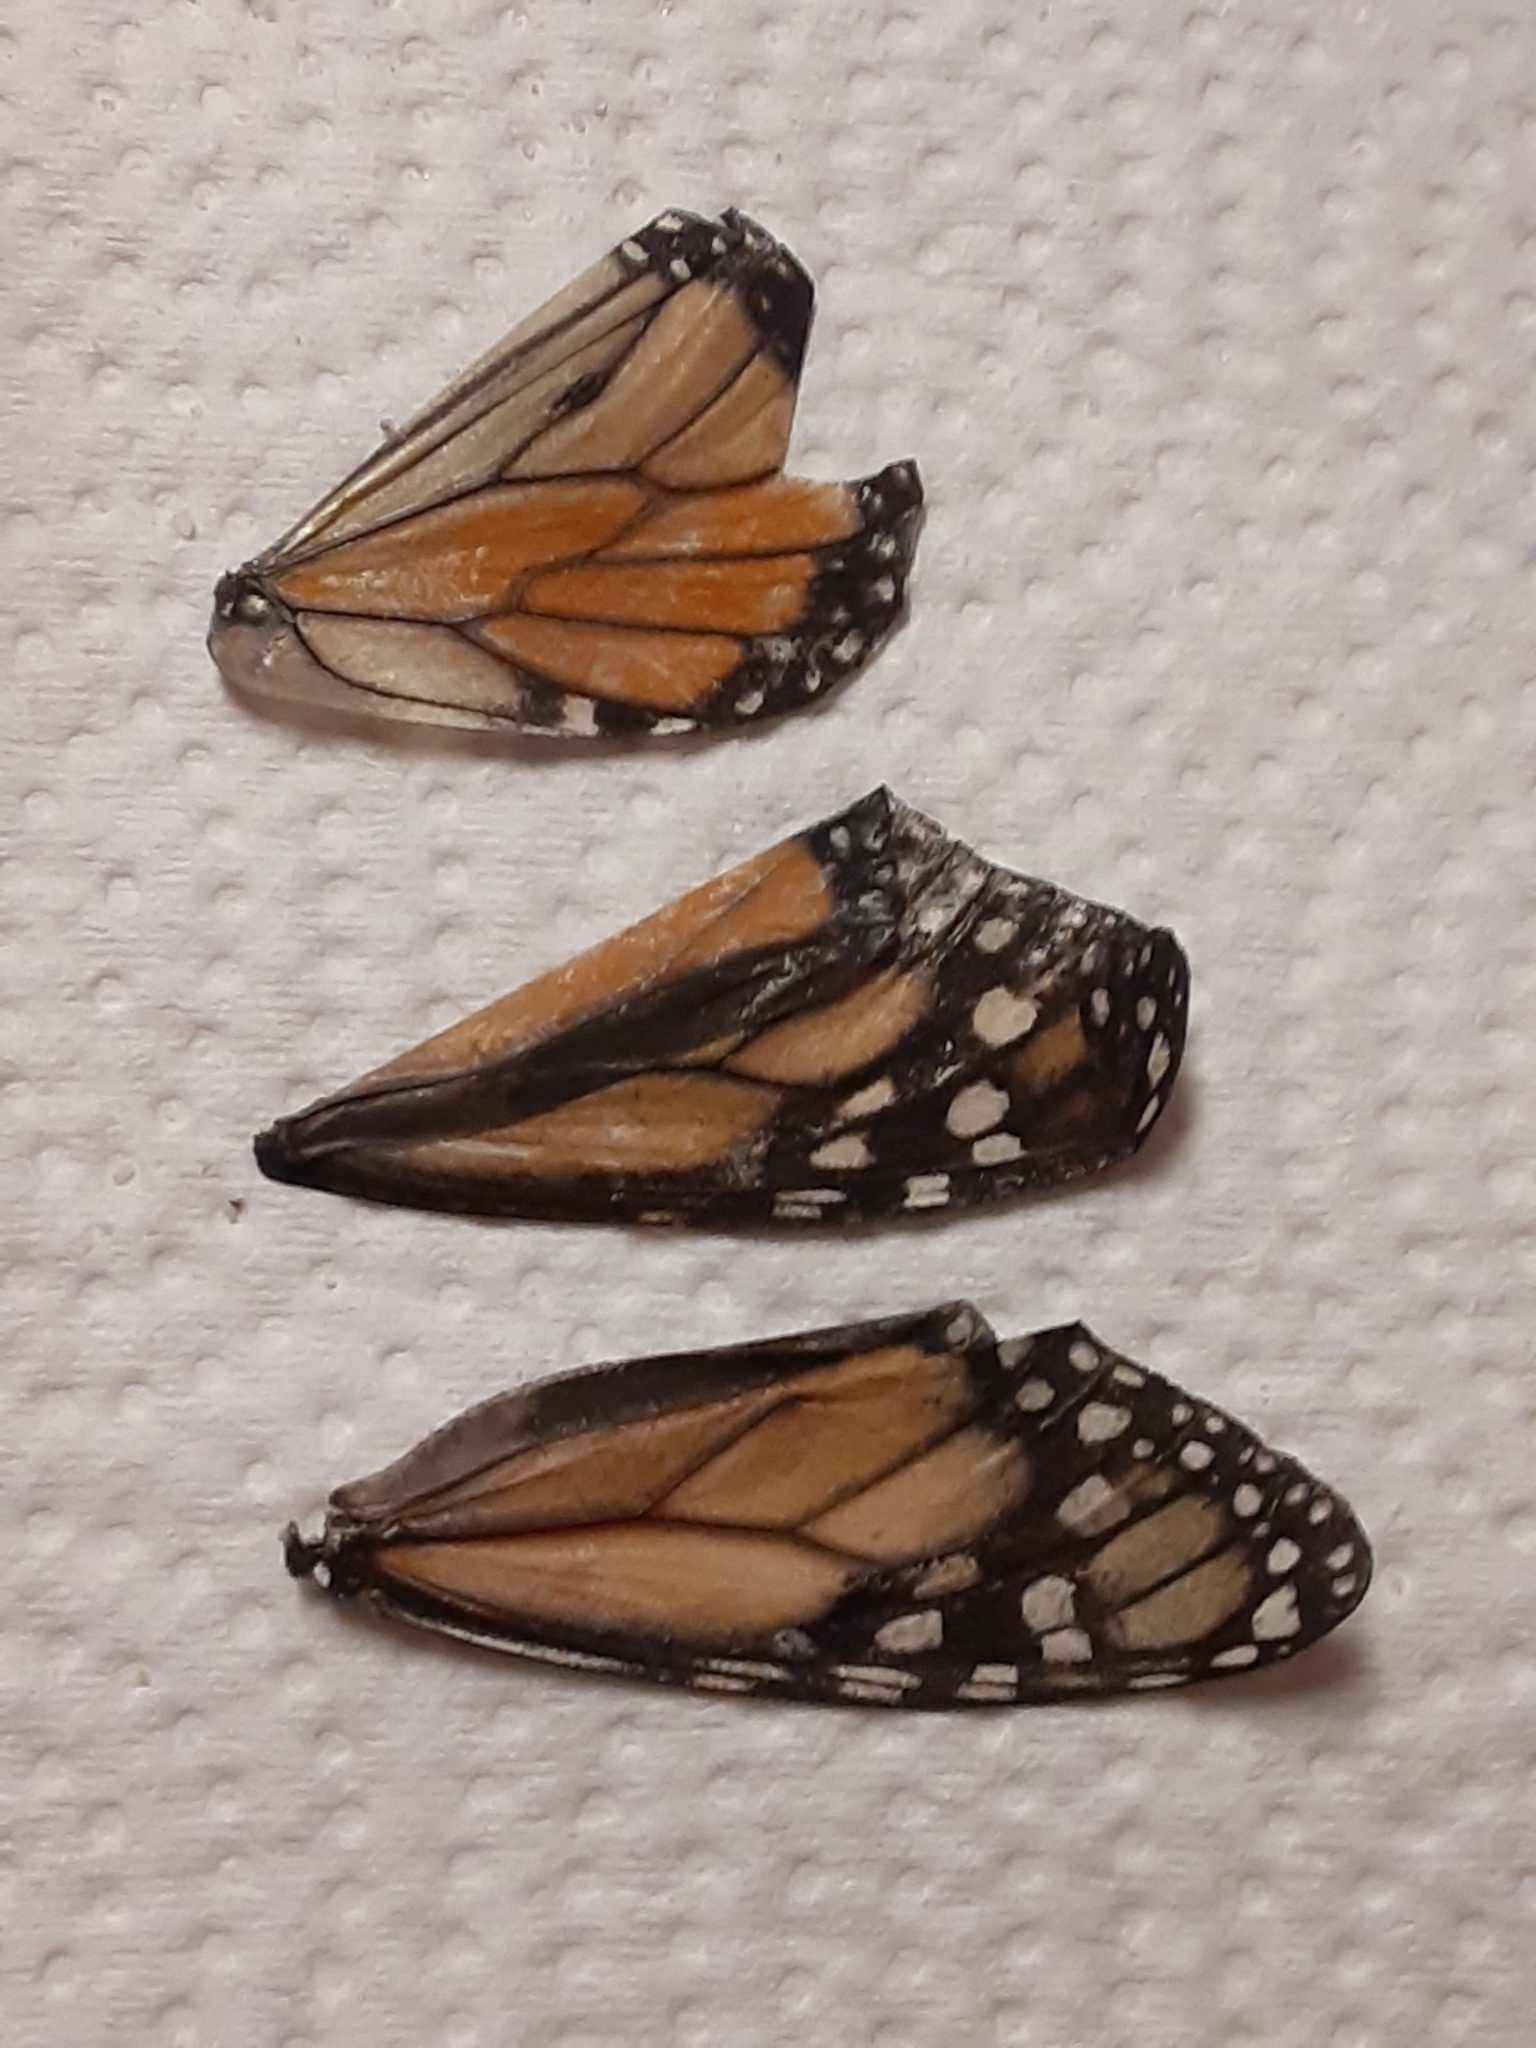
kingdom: Animalia
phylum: Arthropoda
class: Insecta
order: Lepidoptera
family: Nymphalidae
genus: Danaus
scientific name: Danaus plexippus
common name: Monarch
